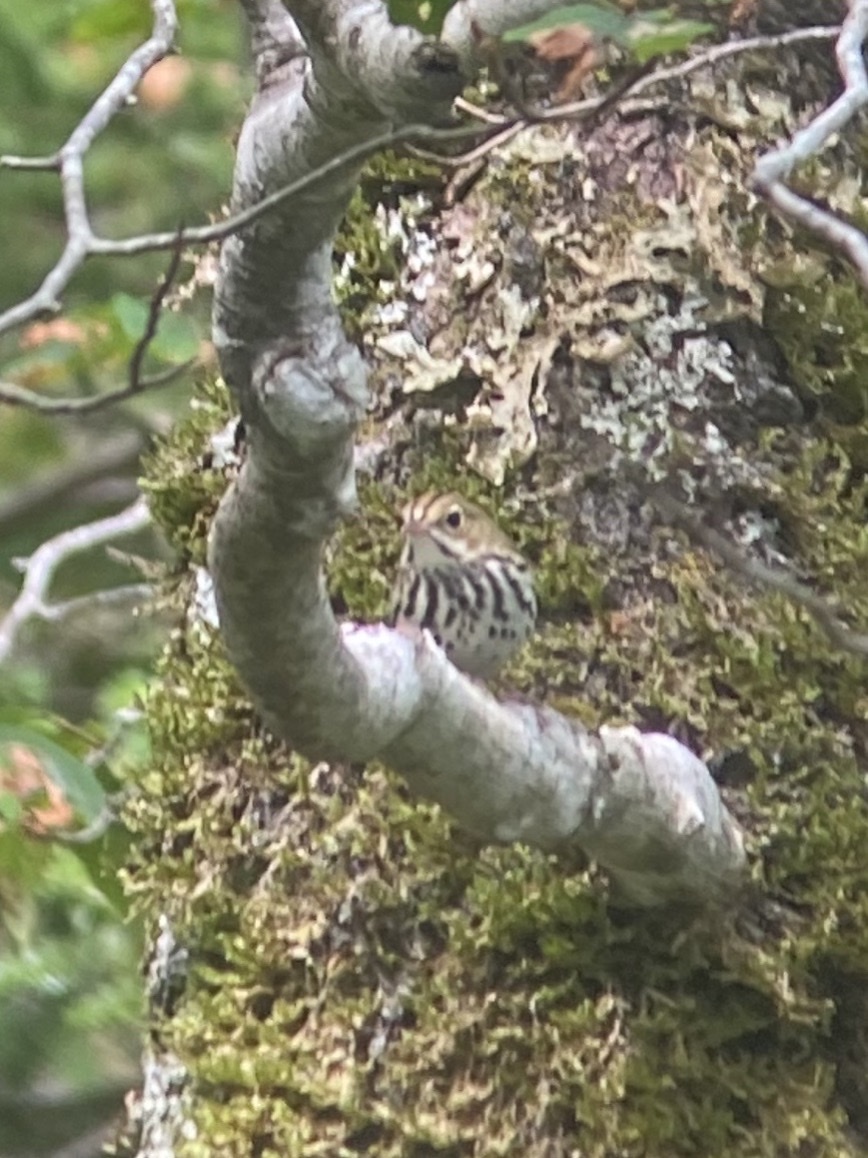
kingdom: Animalia
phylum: Chordata
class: Aves
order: Passeriformes
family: Parulidae
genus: Seiurus
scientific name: Seiurus aurocapilla
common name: Ovenbird
